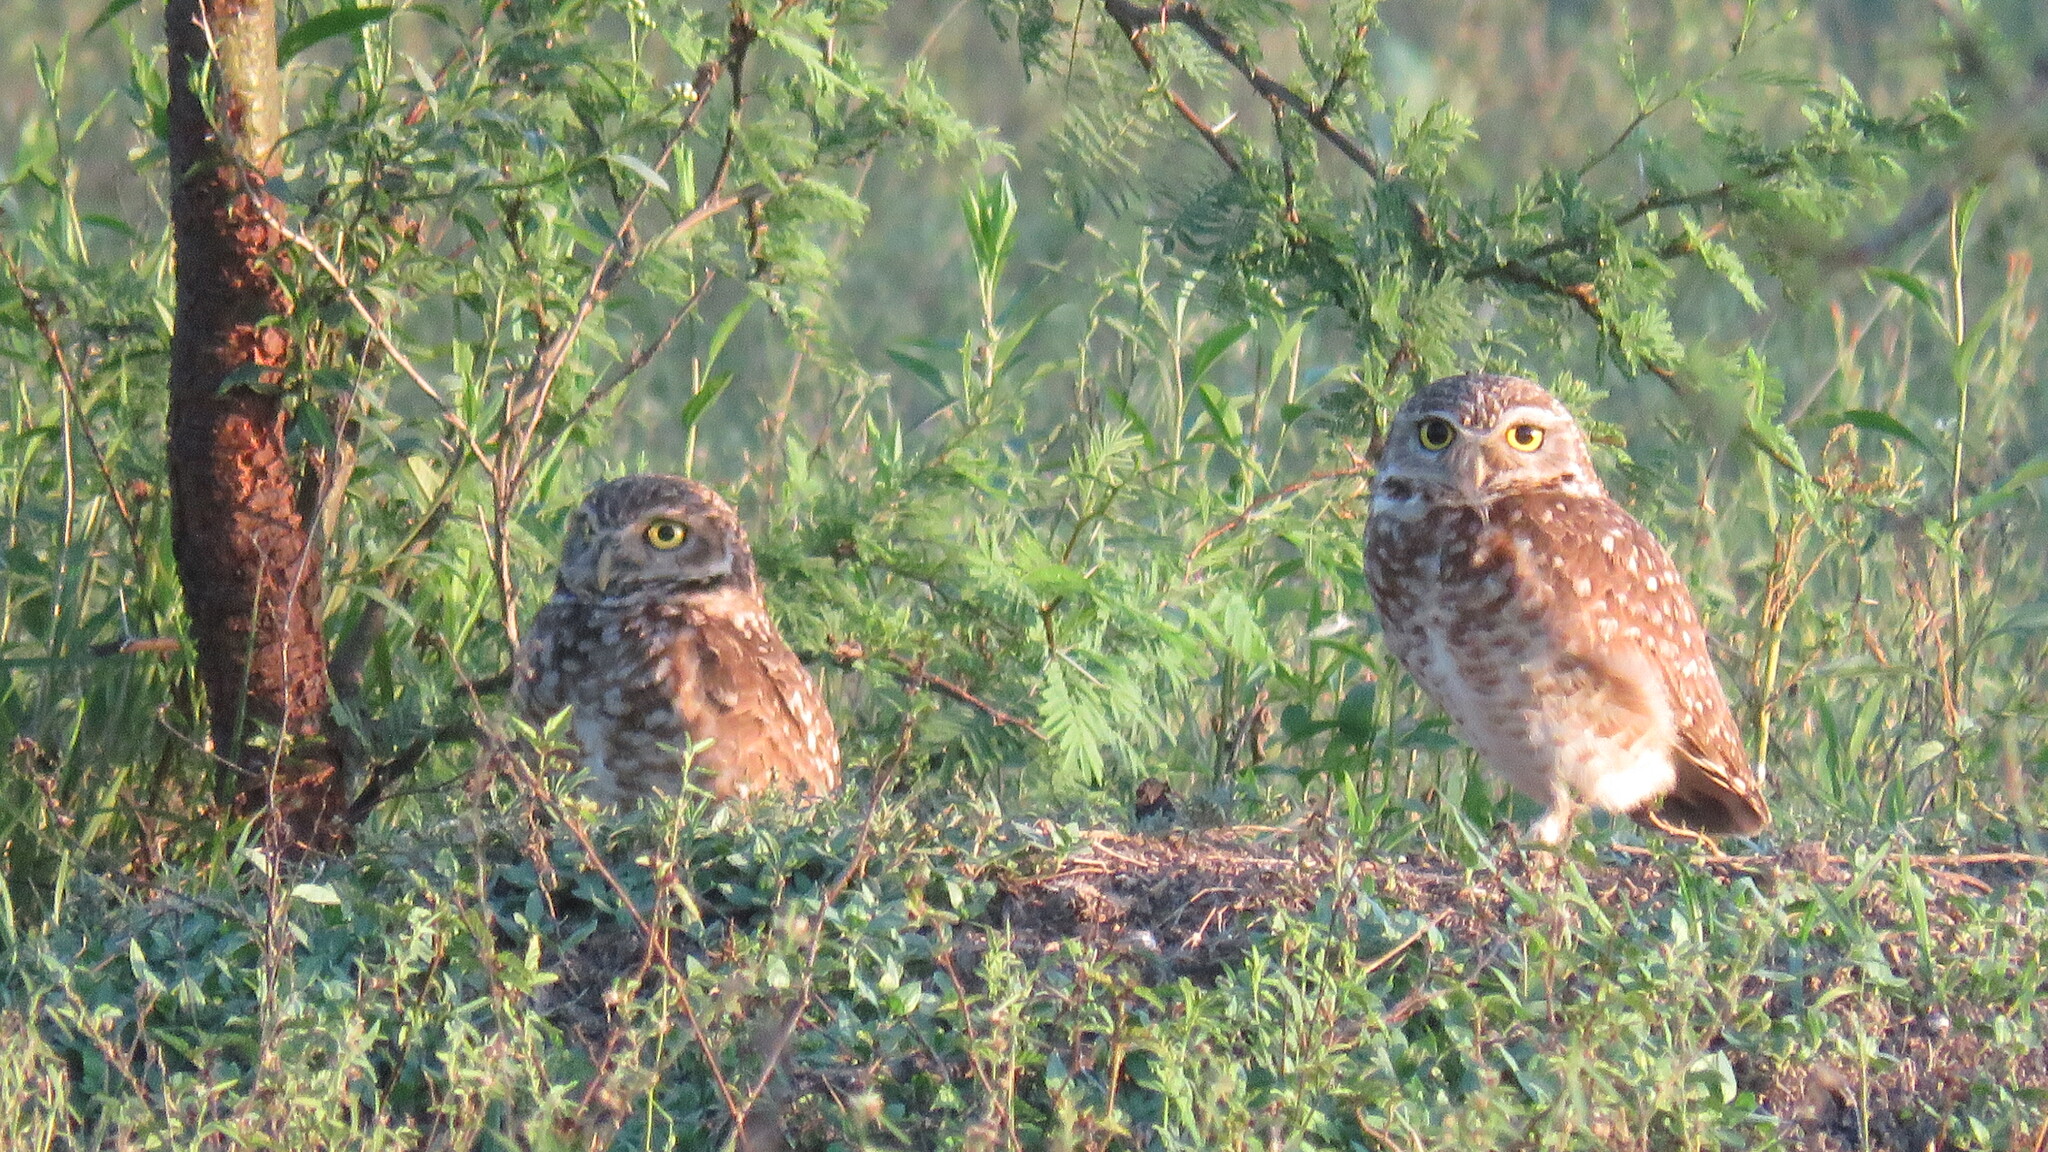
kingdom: Animalia
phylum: Chordata
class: Aves
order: Strigiformes
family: Strigidae
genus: Athene
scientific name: Athene cunicularia
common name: Burrowing owl
